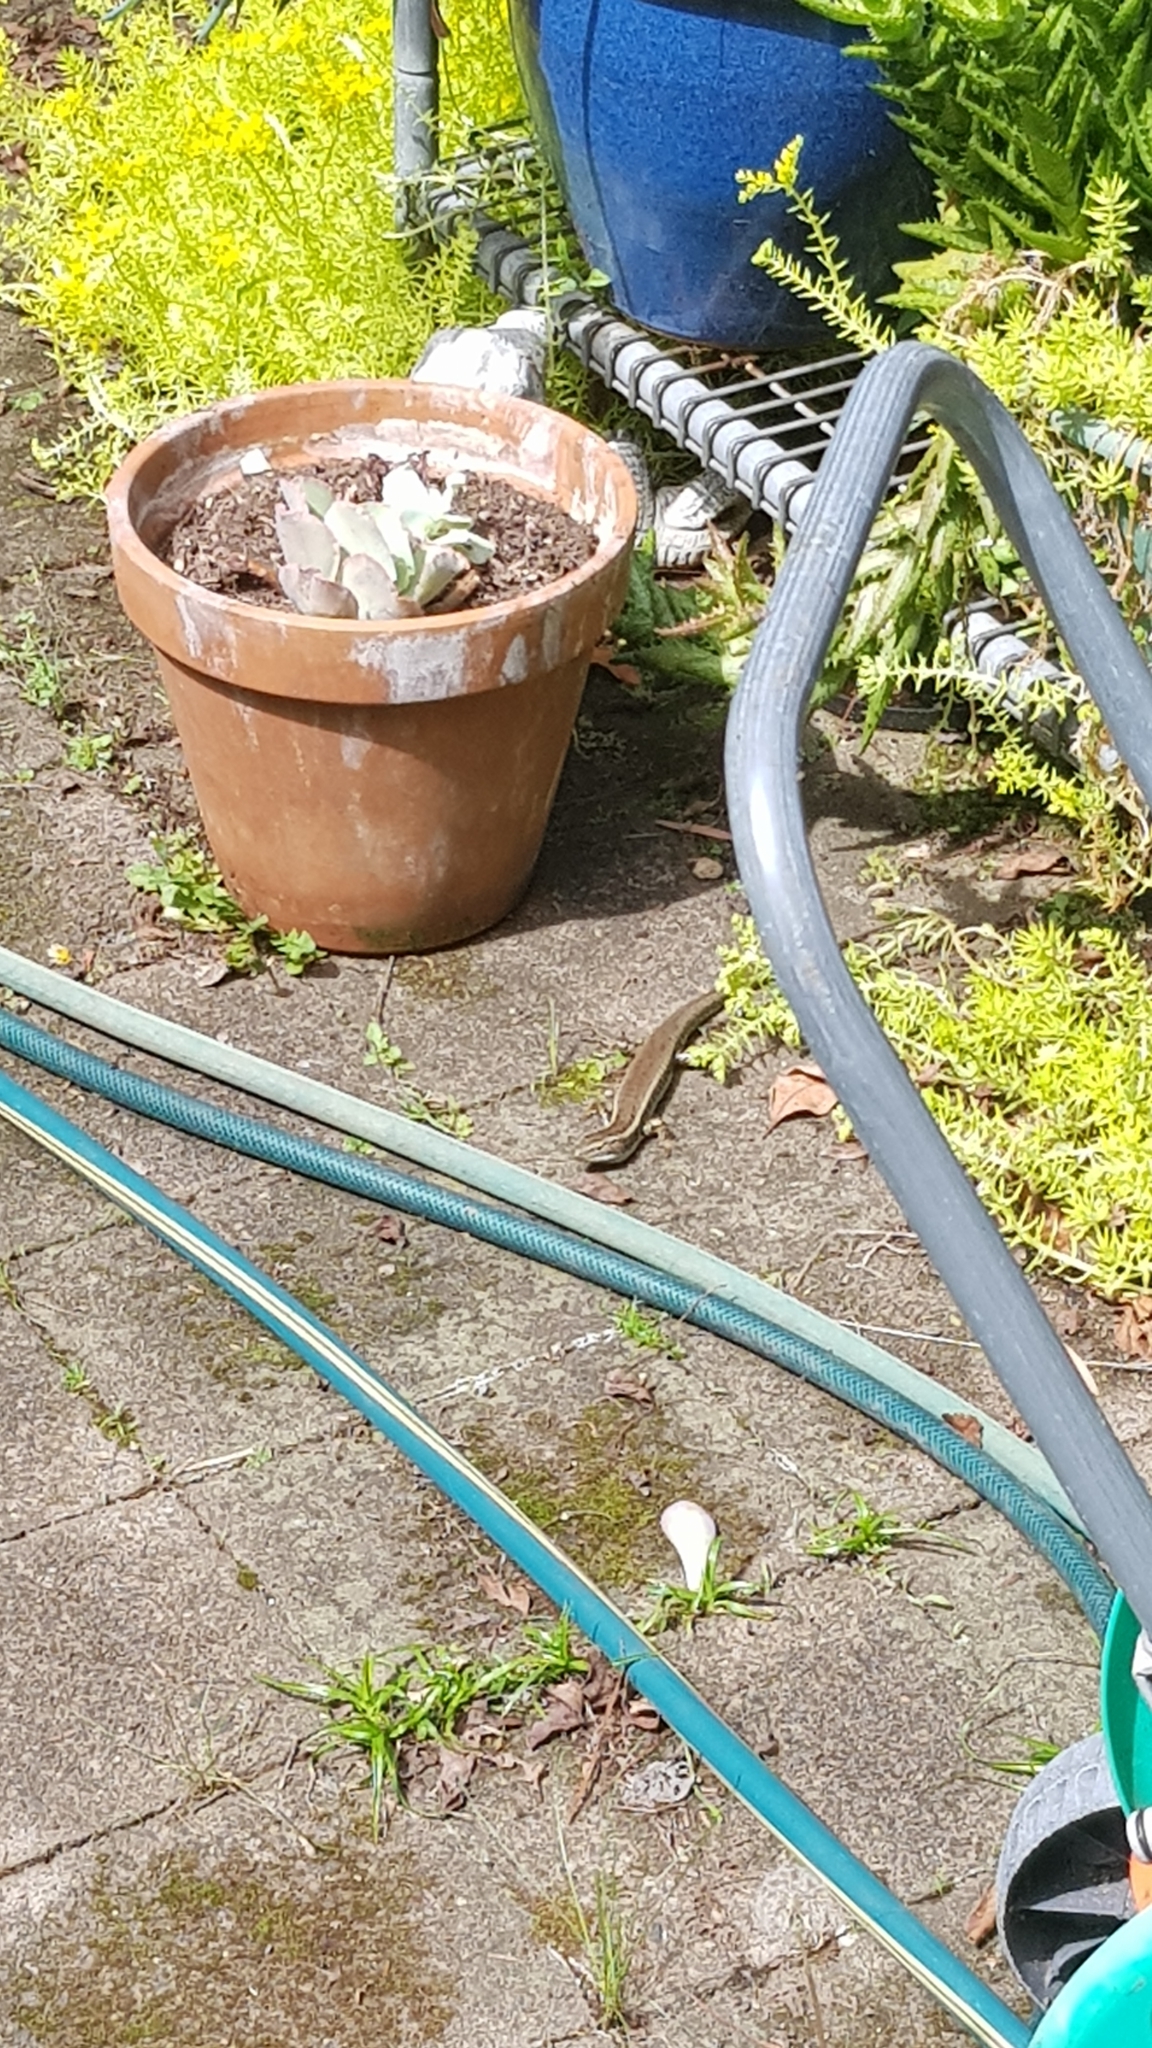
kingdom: Animalia
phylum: Chordata
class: Squamata
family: Scincidae
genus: Eulamprus
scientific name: Eulamprus quoyii
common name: Eastern water skink
